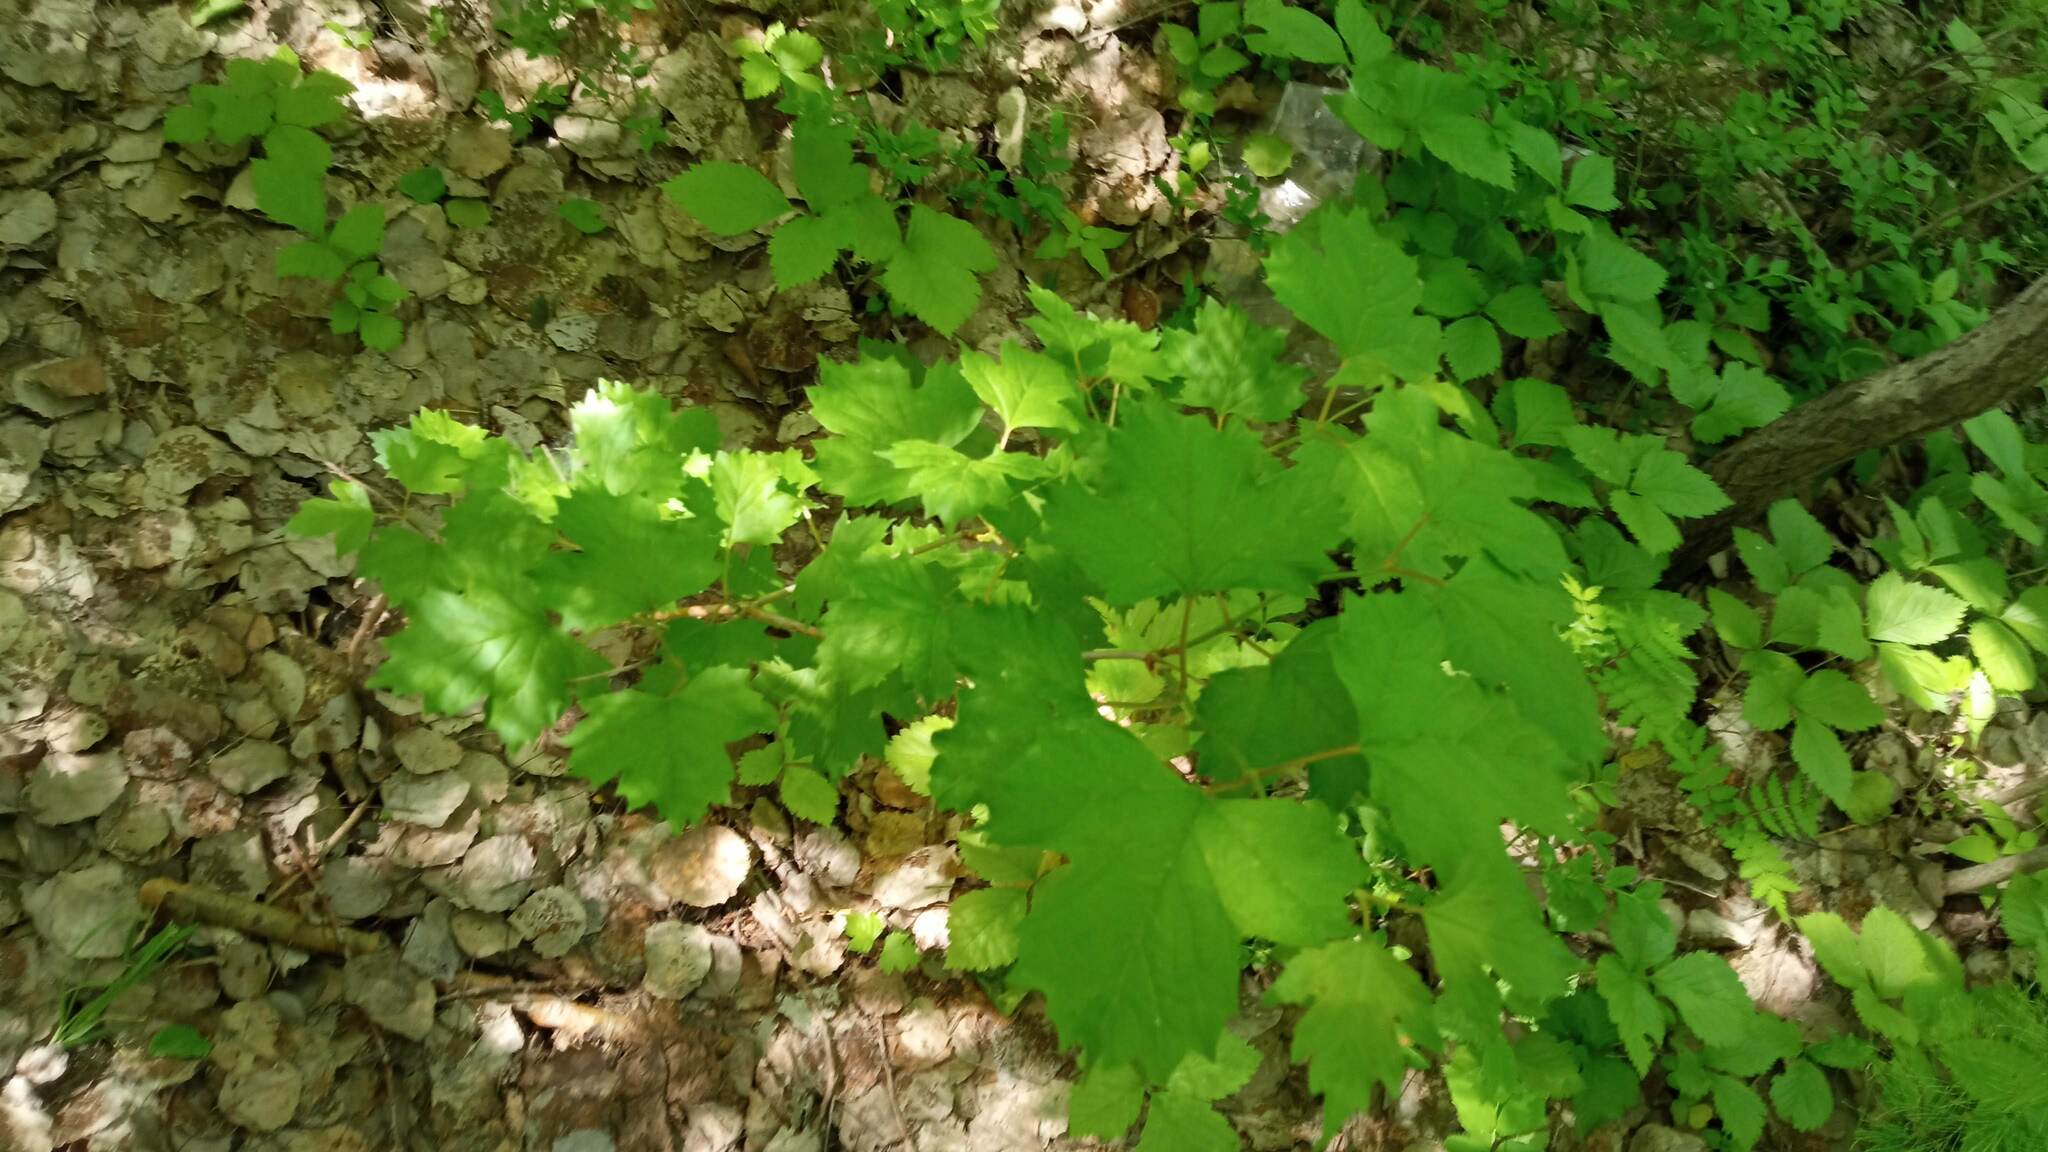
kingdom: Plantae
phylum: Tracheophyta
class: Magnoliopsida
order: Dipsacales
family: Viburnaceae
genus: Viburnum
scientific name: Viburnum opulus
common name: Guelder-rose
